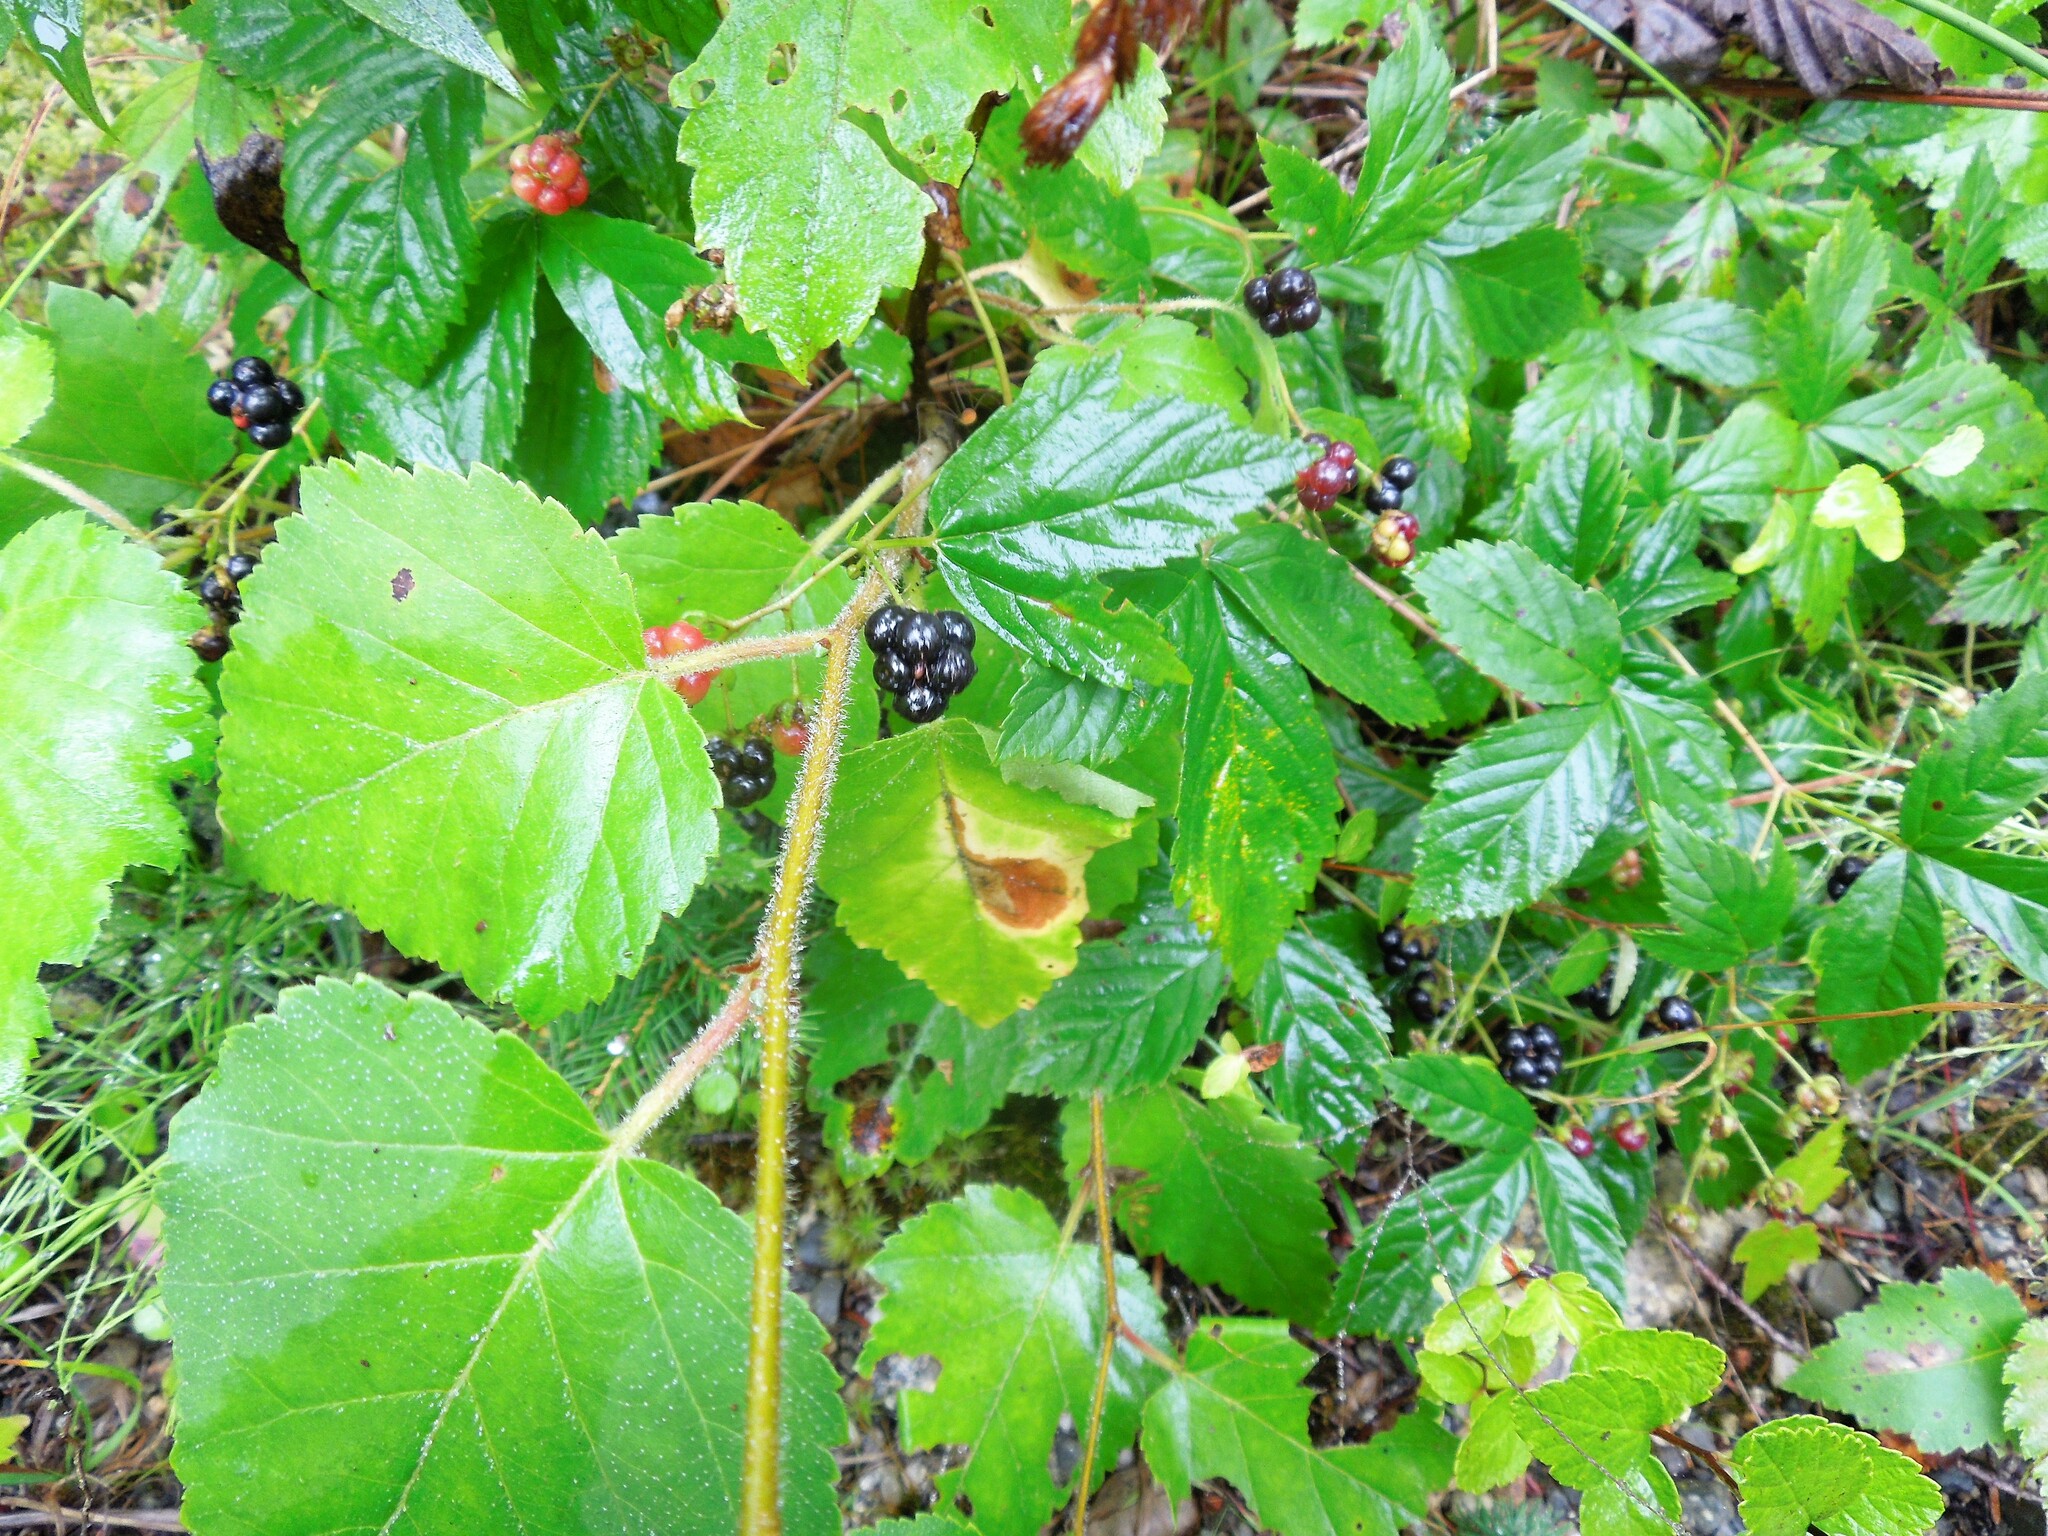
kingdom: Plantae
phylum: Tracheophyta
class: Magnoliopsida
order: Rosales
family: Rosaceae
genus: Rubus
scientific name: Rubus hispidus
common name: Running blackberry
